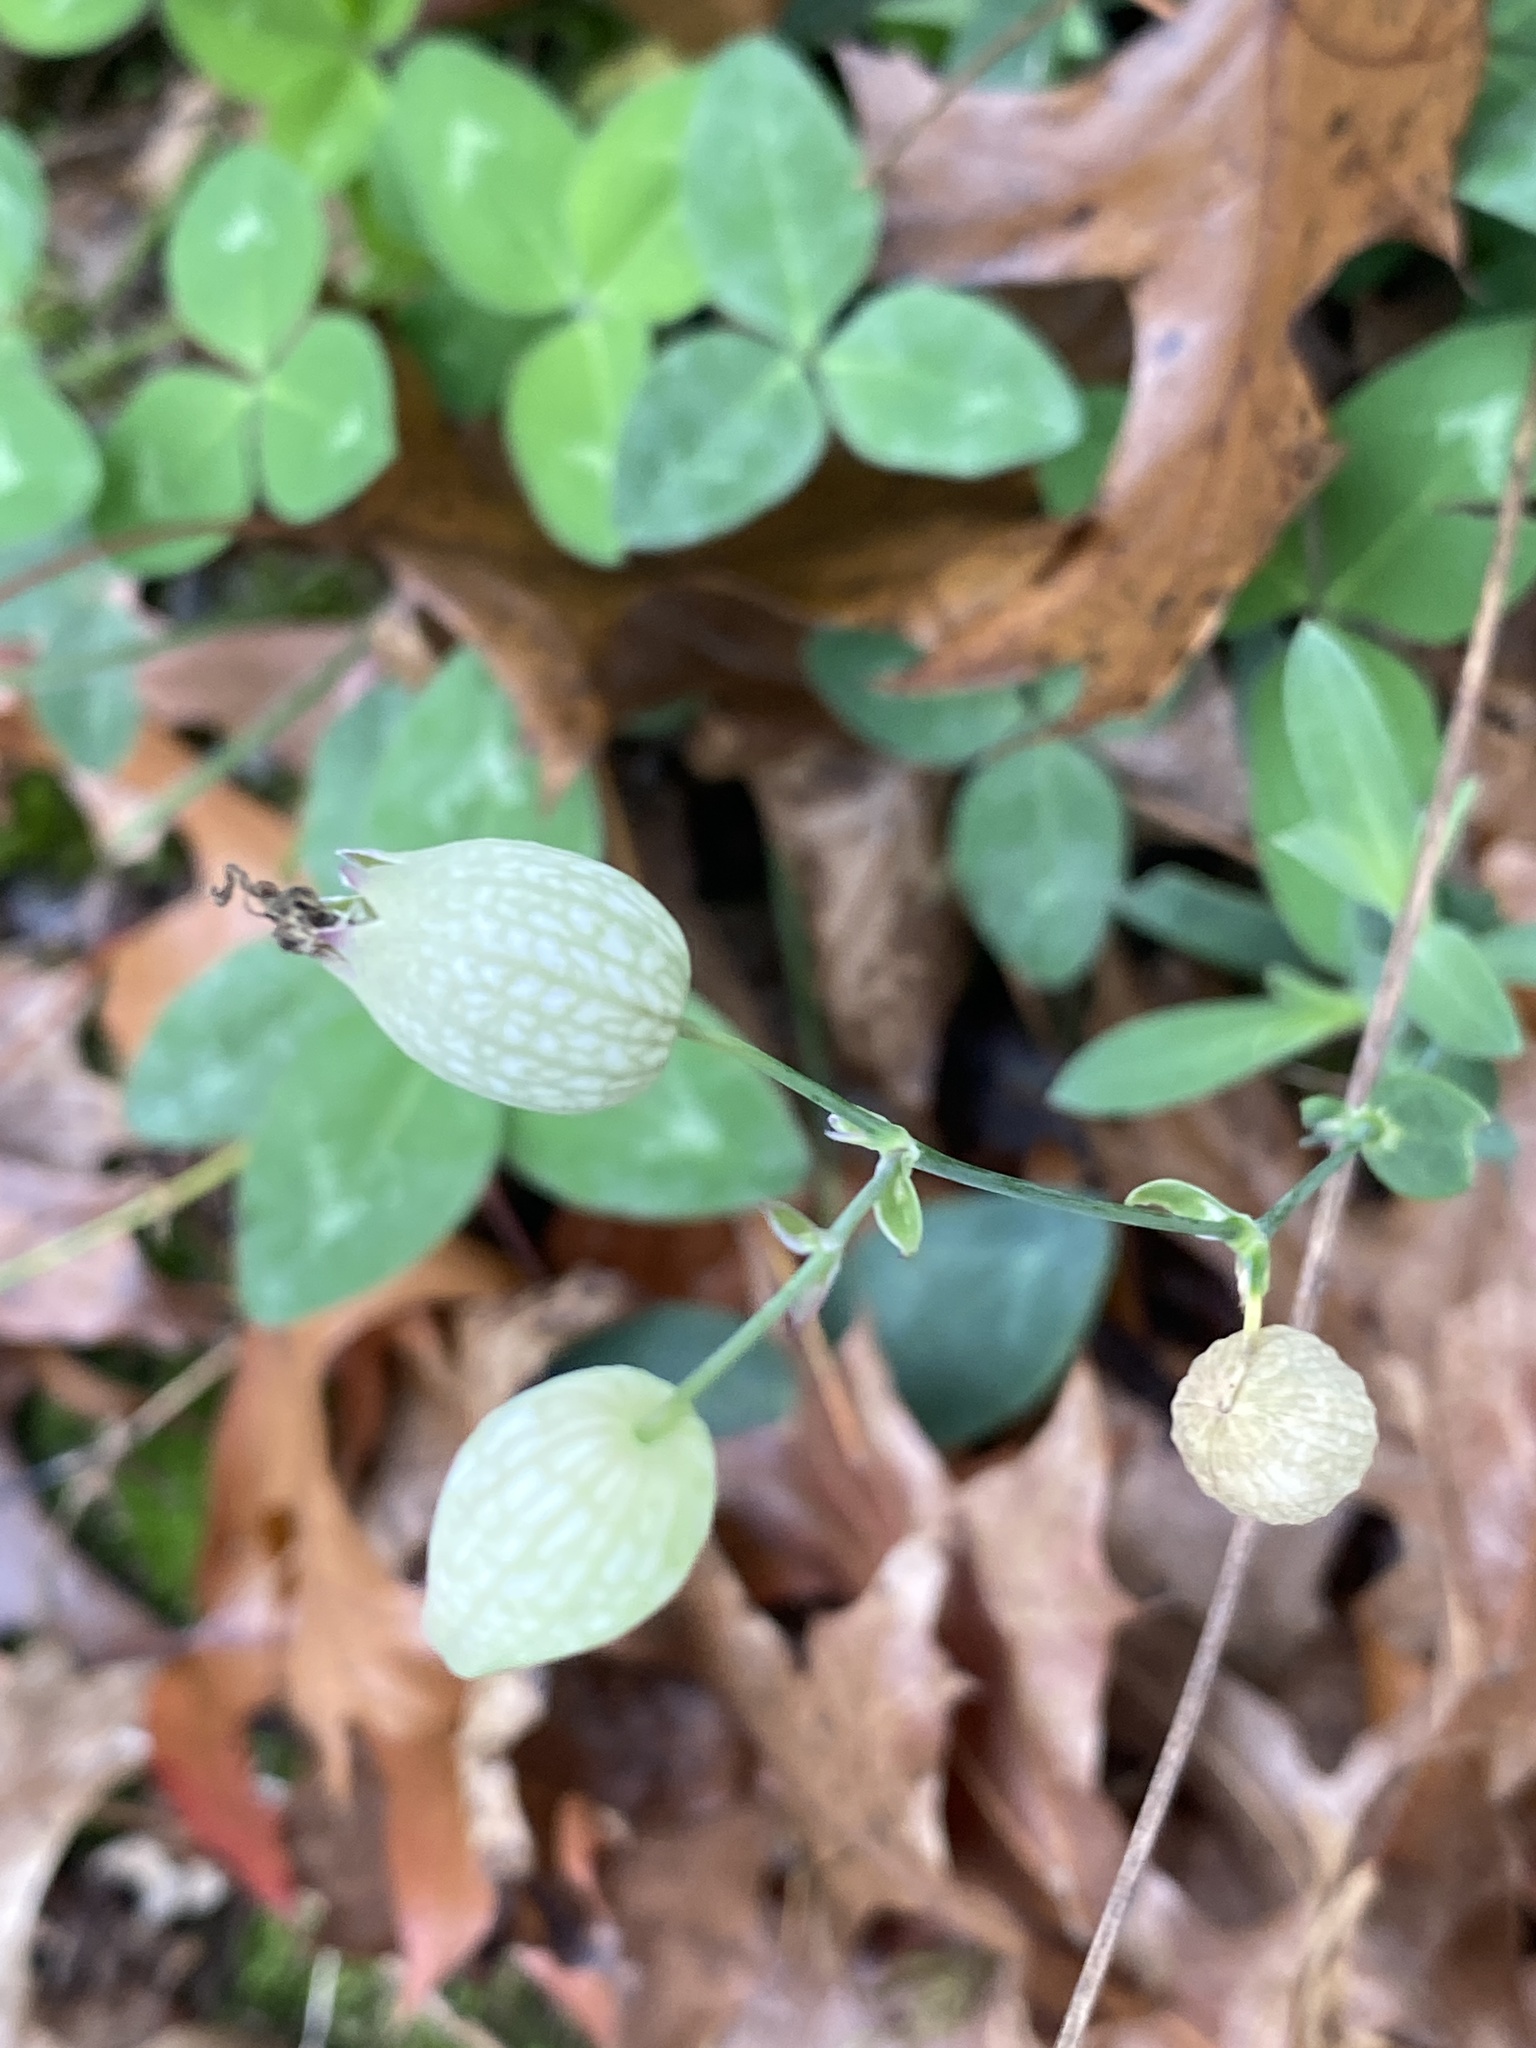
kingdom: Plantae
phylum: Tracheophyta
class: Magnoliopsida
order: Caryophyllales
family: Caryophyllaceae
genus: Silene
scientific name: Silene vulgaris
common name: Bladder campion
